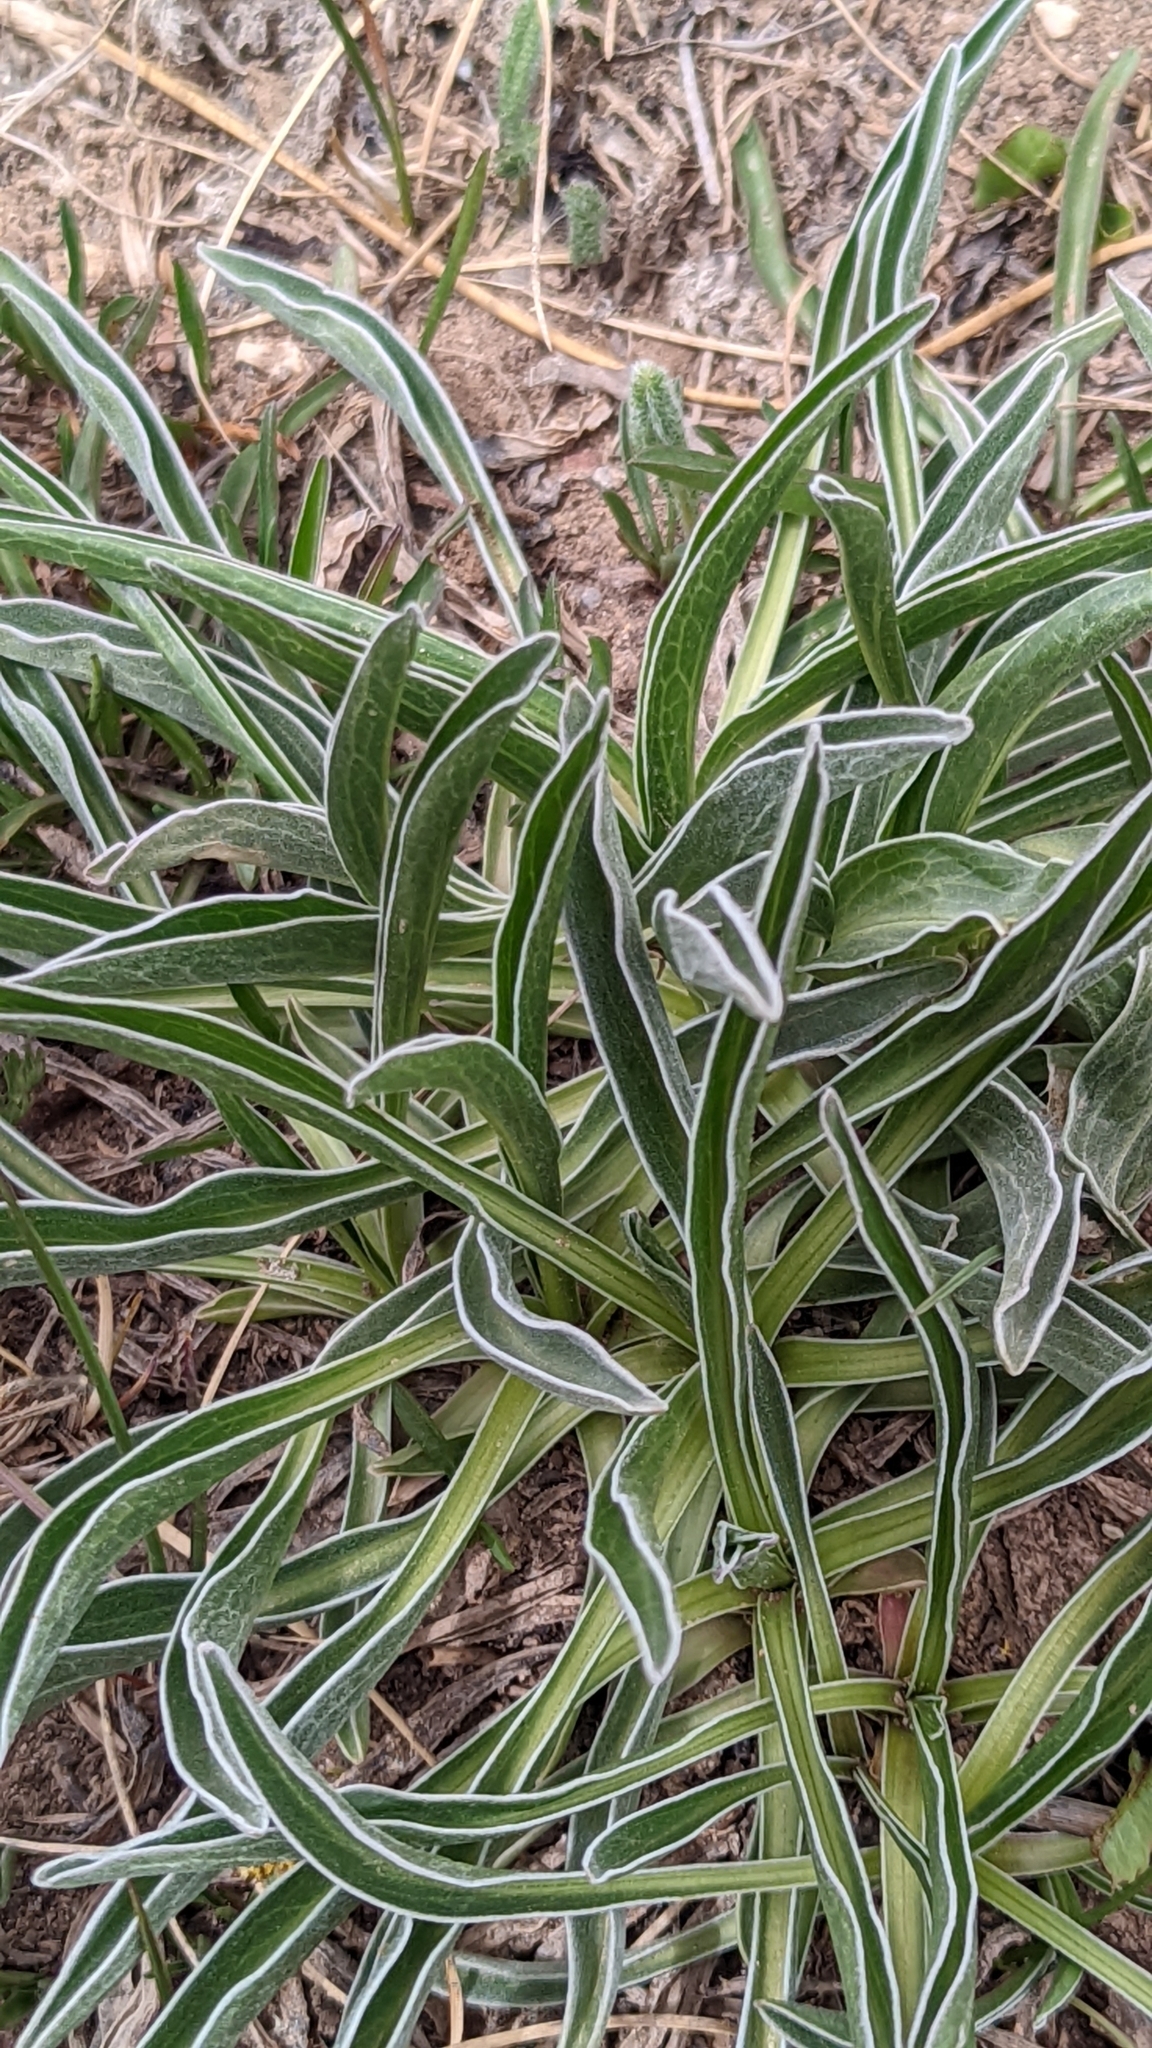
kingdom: Plantae
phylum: Tracheophyta
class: Magnoliopsida
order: Dipsacales
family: Caprifoliaceae
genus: Valeriana
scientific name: Valeriana edulis
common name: Taproot valerian
